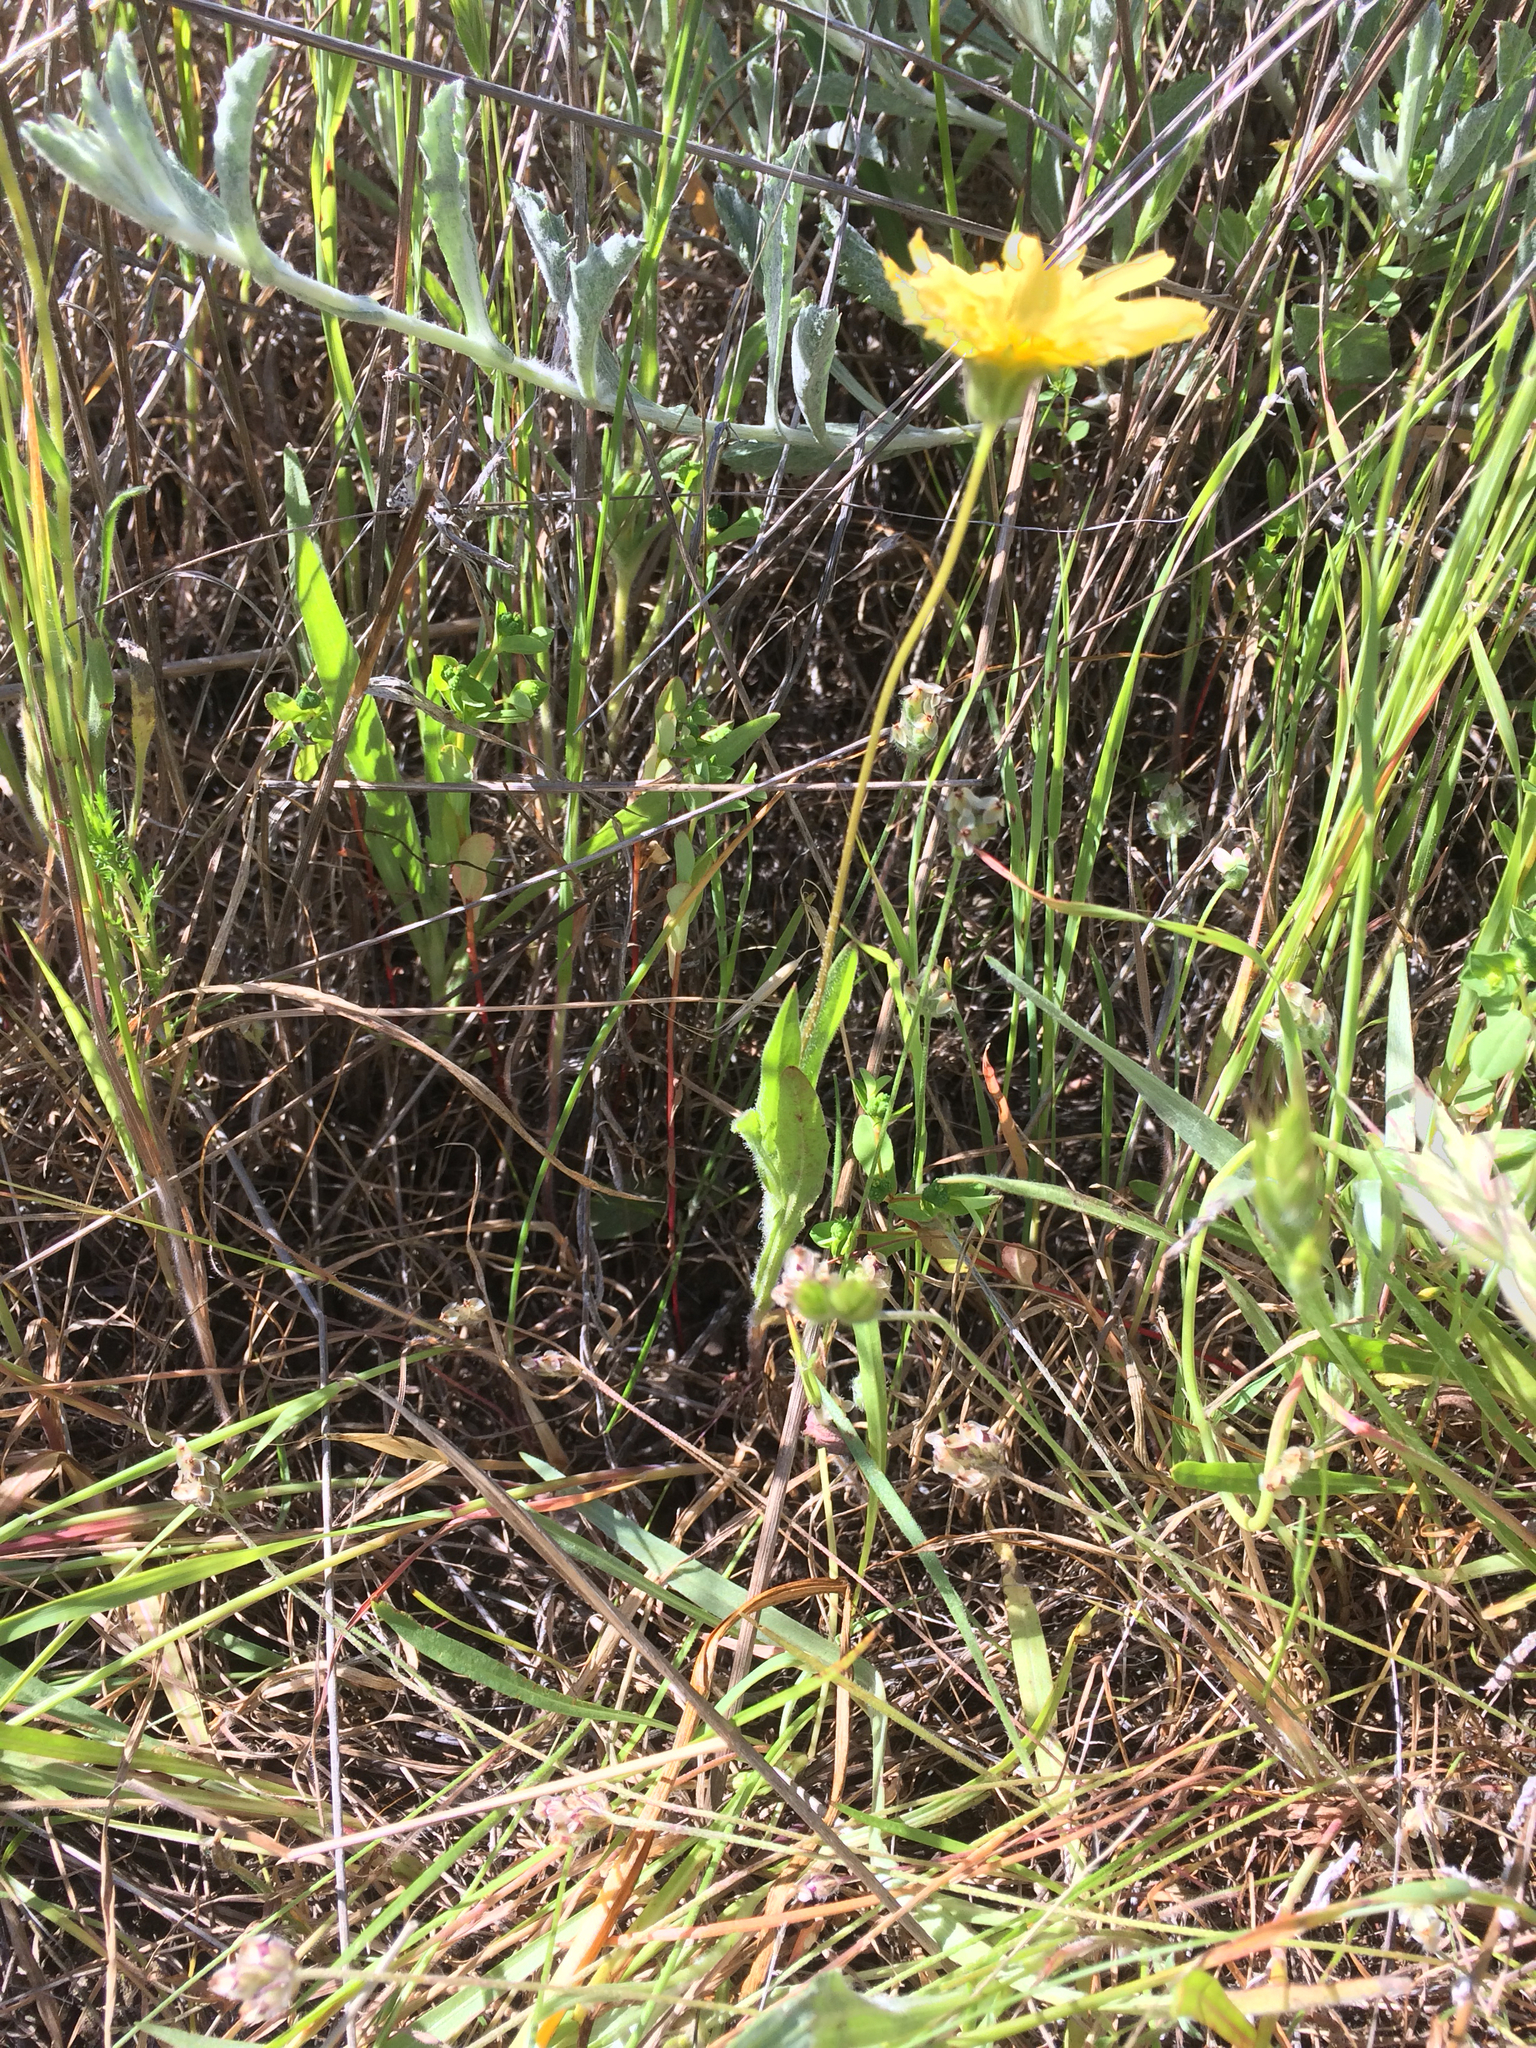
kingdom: Plantae
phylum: Tracheophyta
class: Magnoliopsida
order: Asterales
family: Asteraceae
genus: Agoseris
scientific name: Agoseris heterophylla
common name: Annual agoseris
